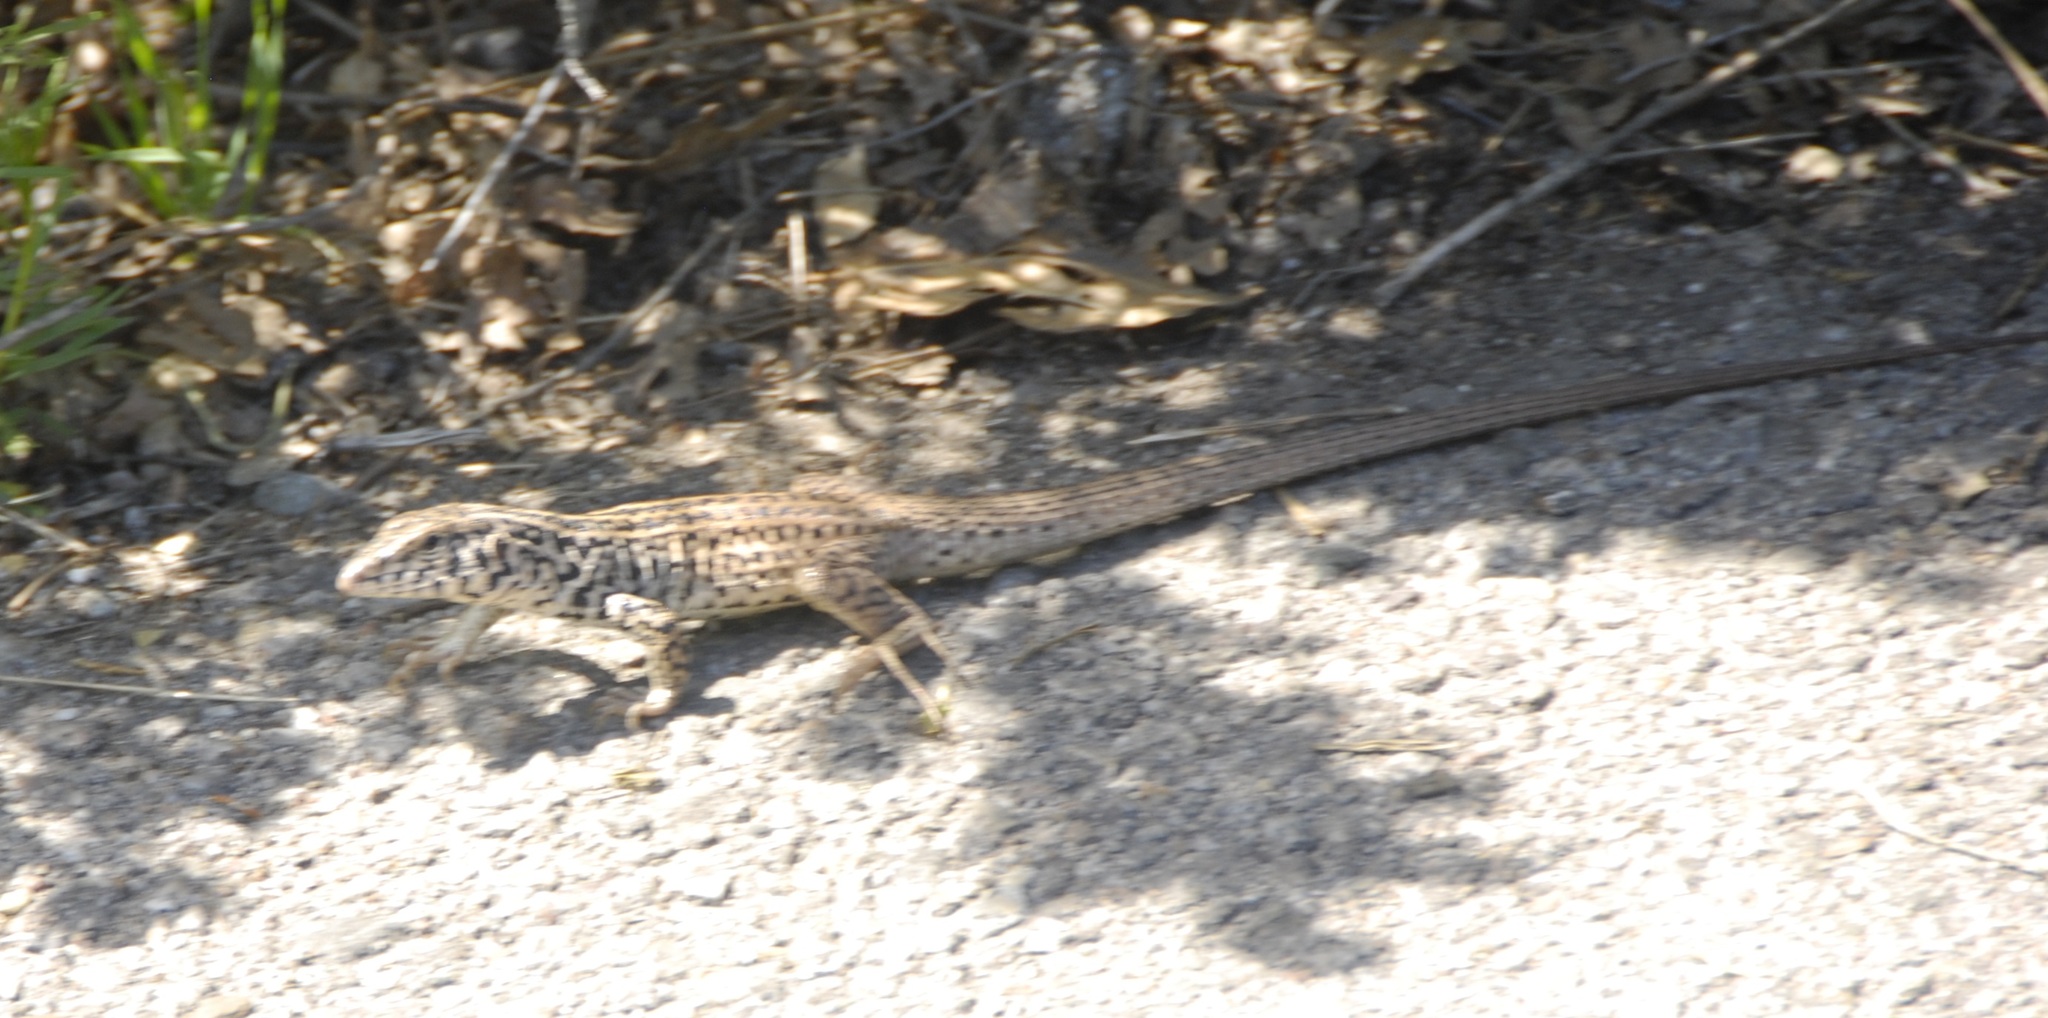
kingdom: Animalia
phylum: Chordata
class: Squamata
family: Teiidae
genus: Aspidoscelis
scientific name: Aspidoscelis tigris
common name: Tiger whiptail
